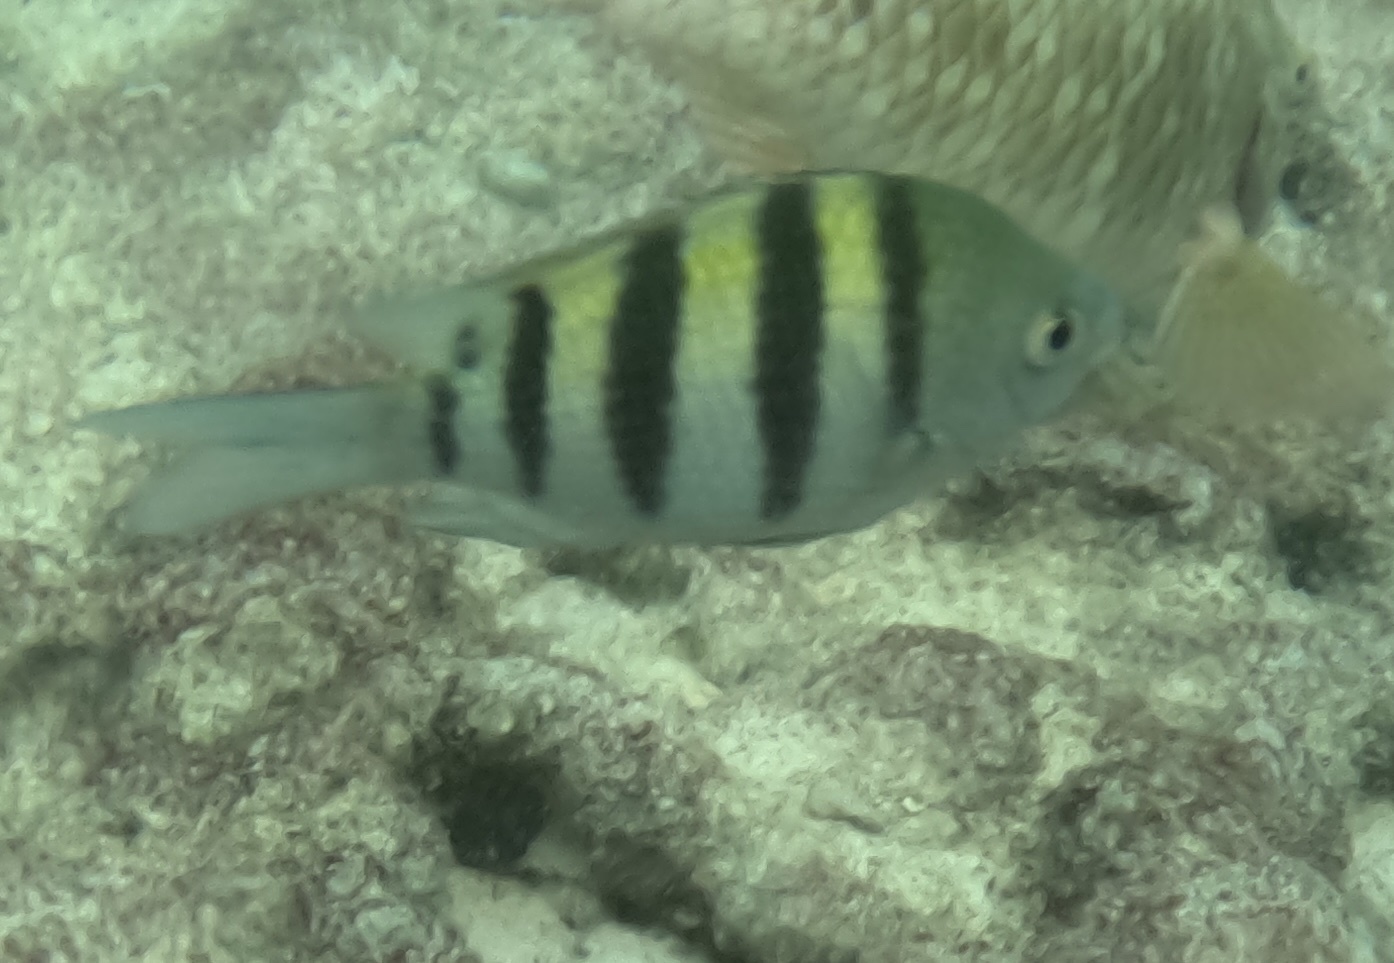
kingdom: Animalia
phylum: Chordata
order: Perciformes
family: Pomacentridae
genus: Abudefduf
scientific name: Abudefduf saxatilis
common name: Sergeant major
